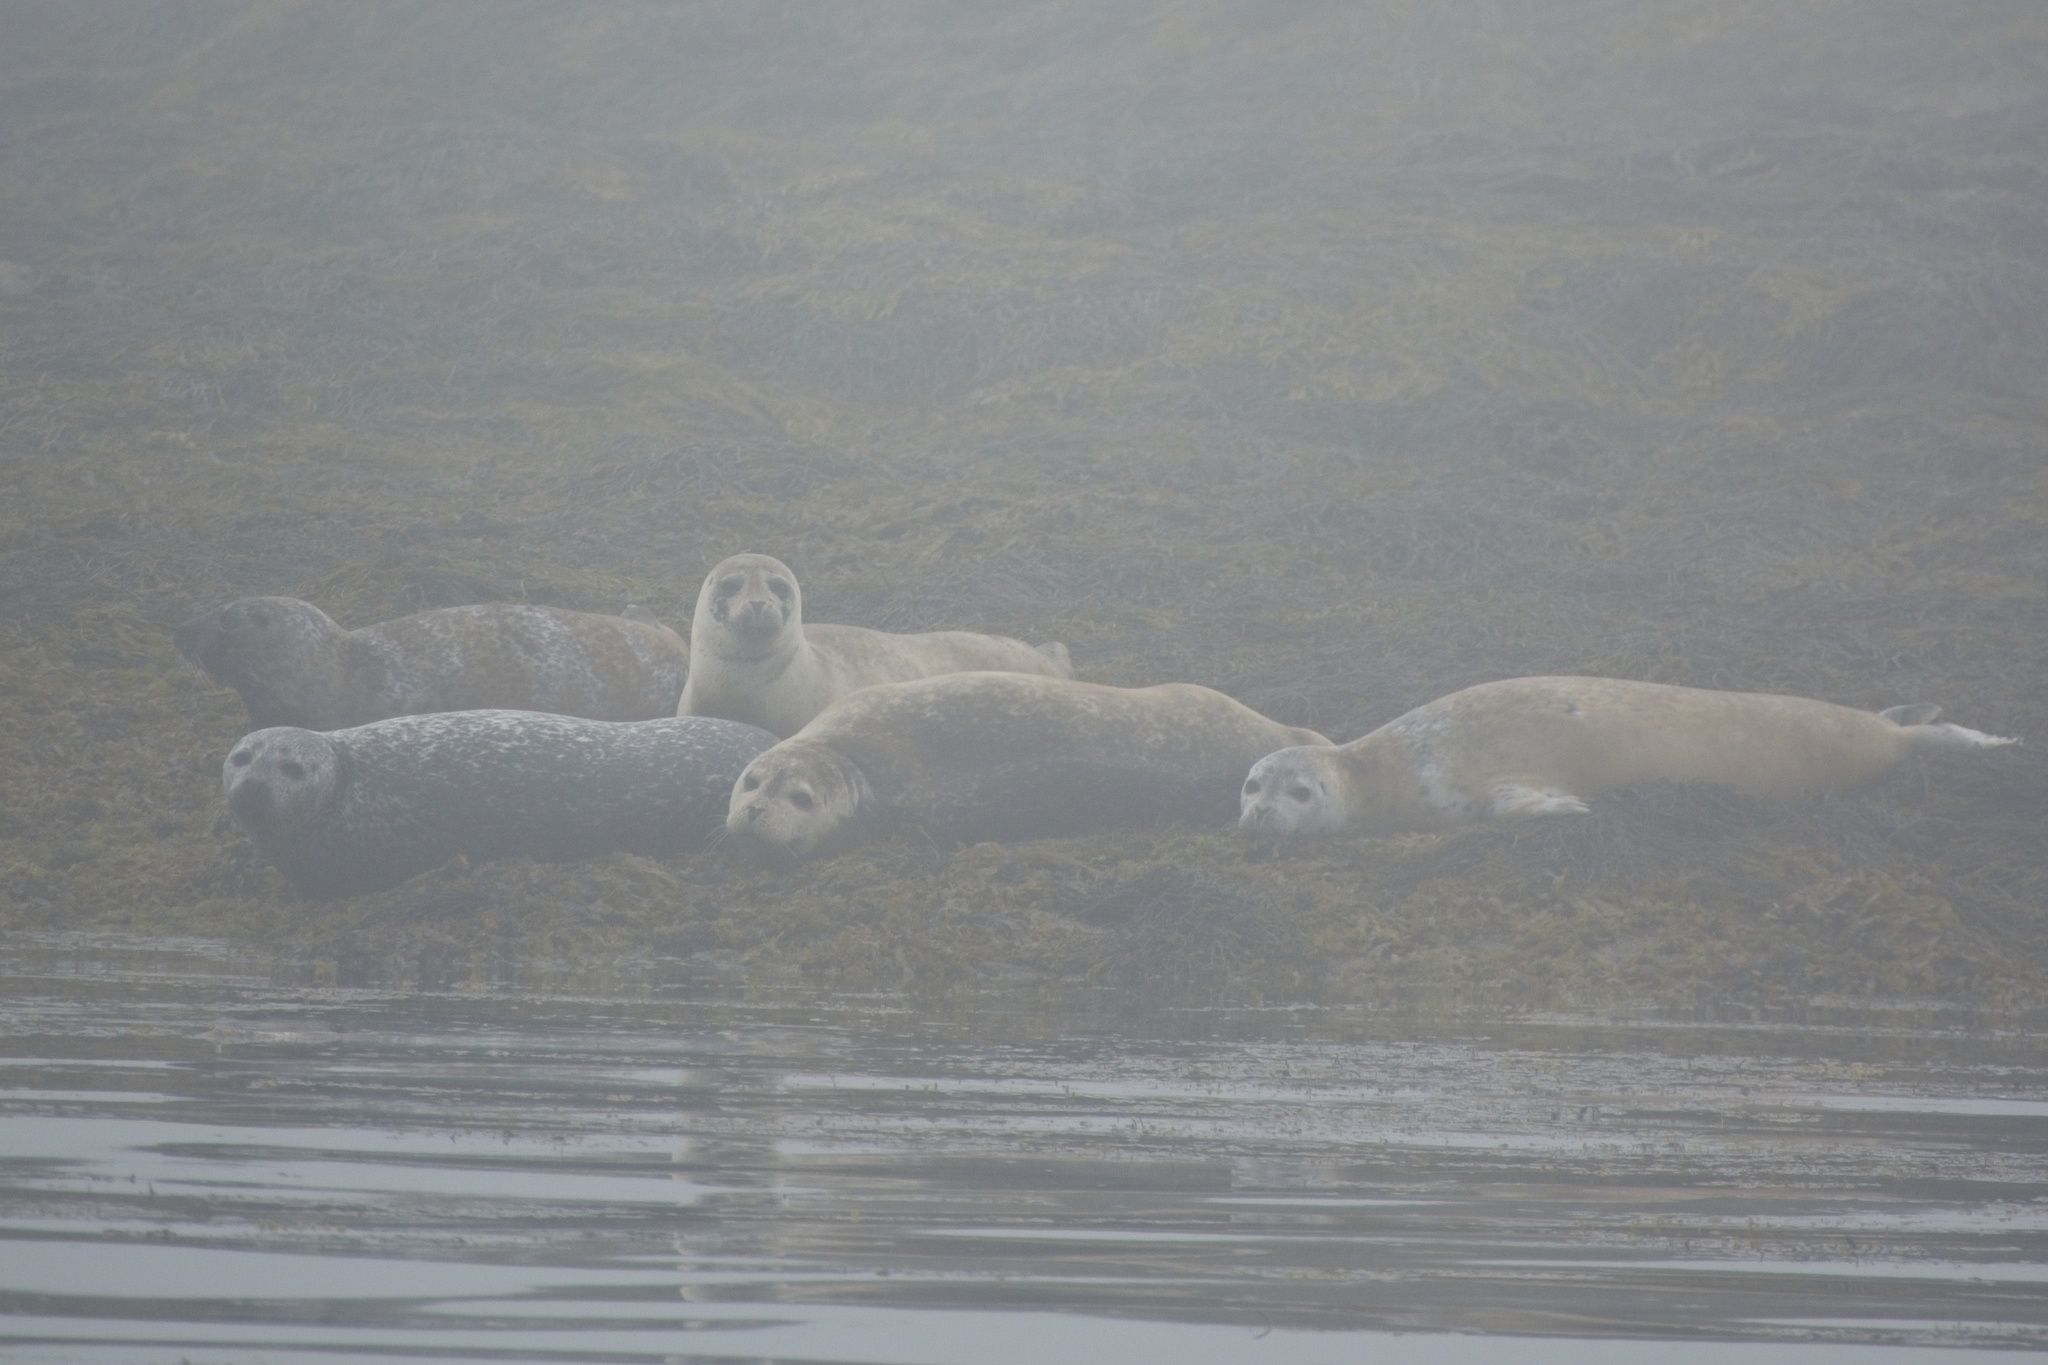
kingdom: Animalia
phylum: Chordata
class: Mammalia
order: Carnivora
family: Phocidae
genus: Phoca
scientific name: Phoca vitulina
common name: Harbor seal
